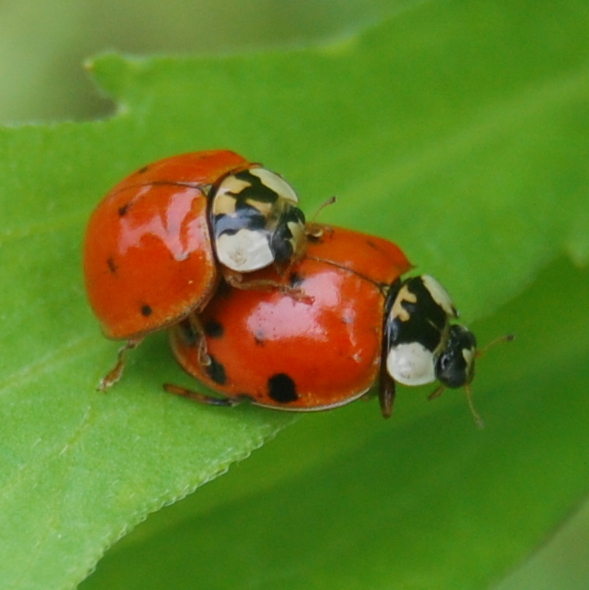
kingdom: Animalia
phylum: Arthropoda
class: Insecta
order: Coleoptera
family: Coccinellidae
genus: Harmonia
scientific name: Harmonia axyridis
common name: Harlequin ladybird
